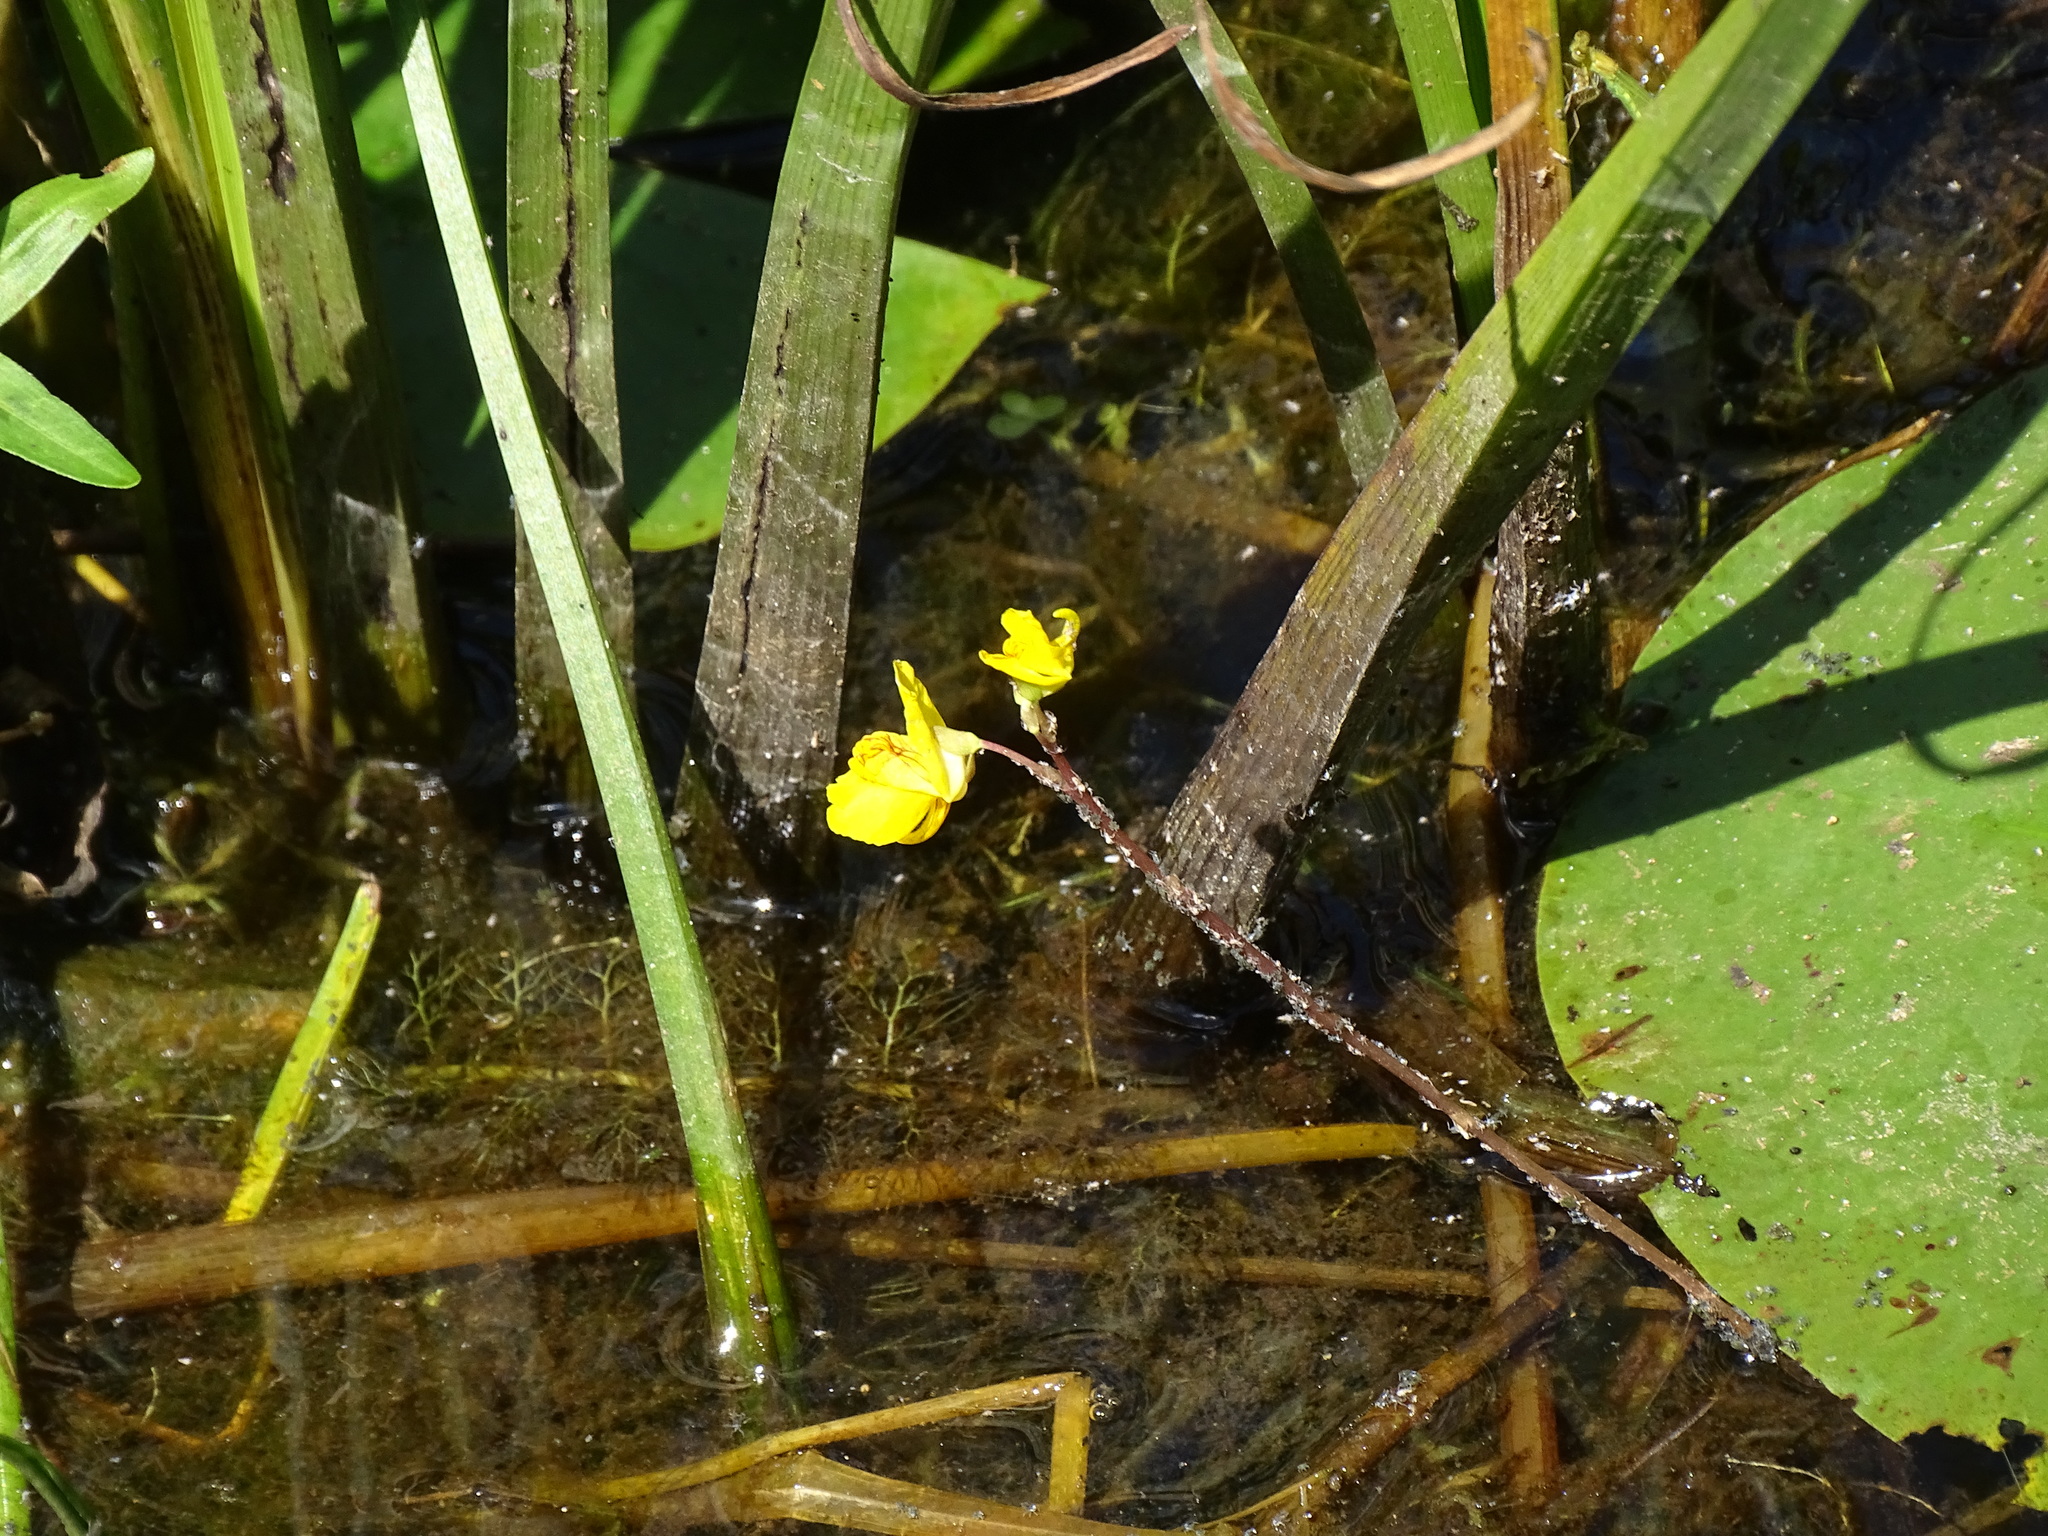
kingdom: Plantae
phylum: Tracheophyta
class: Magnoliopsida
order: Lamiales
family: Lentibulariaceae
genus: Utricularia
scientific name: Utricularia macrorhiza
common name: Common bladderwort
